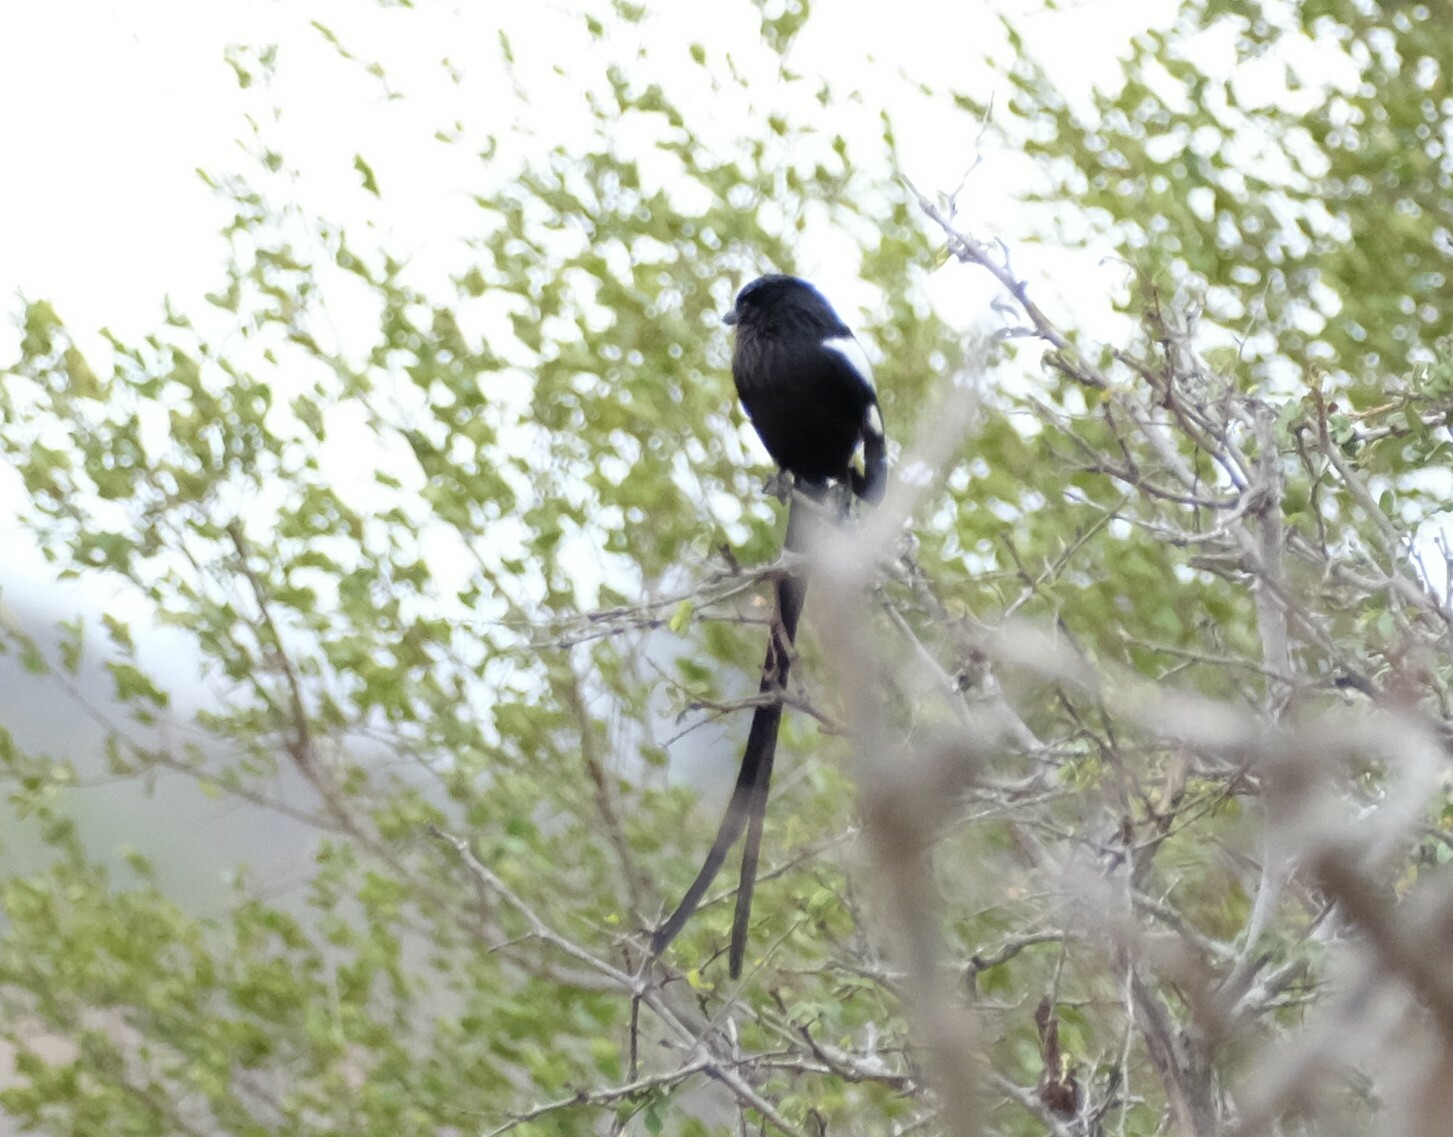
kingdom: Animalia
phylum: Chordata
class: Aves
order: Passeriformes
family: Laniidae
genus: Urolestes
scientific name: Urolestes melanoleucus
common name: Magpie shrike
